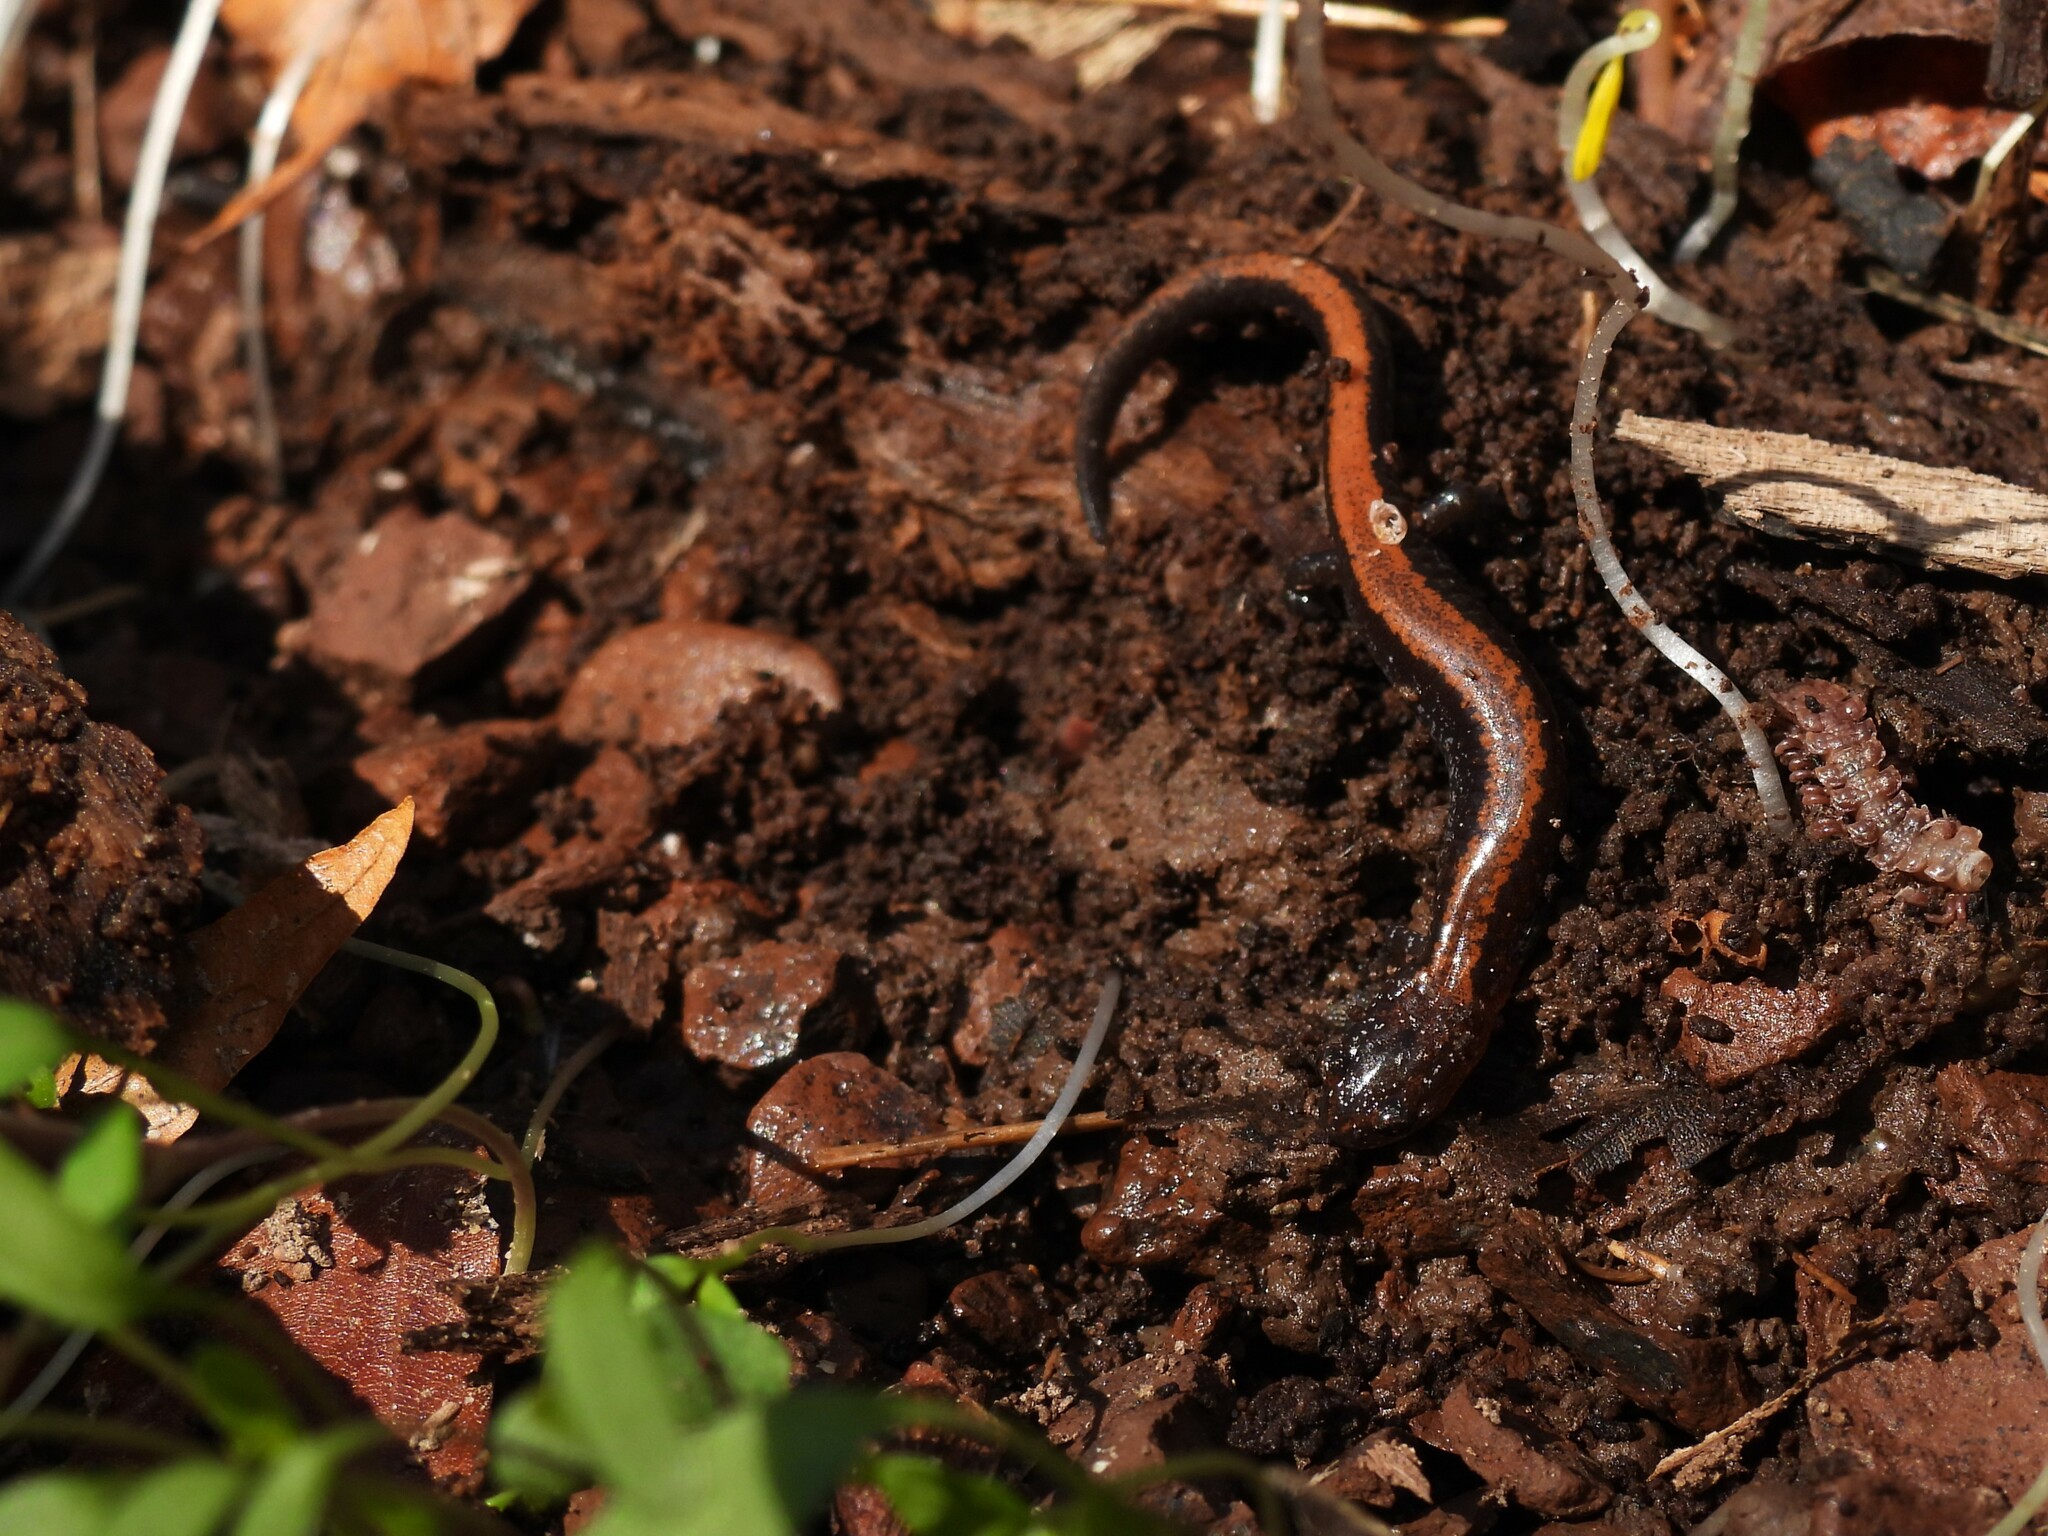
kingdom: Animalia
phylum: Chordata
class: Amphibia
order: Caudata
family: Plethodontidae
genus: Plethodon
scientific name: Plethodon cinereus
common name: Redback salamander
